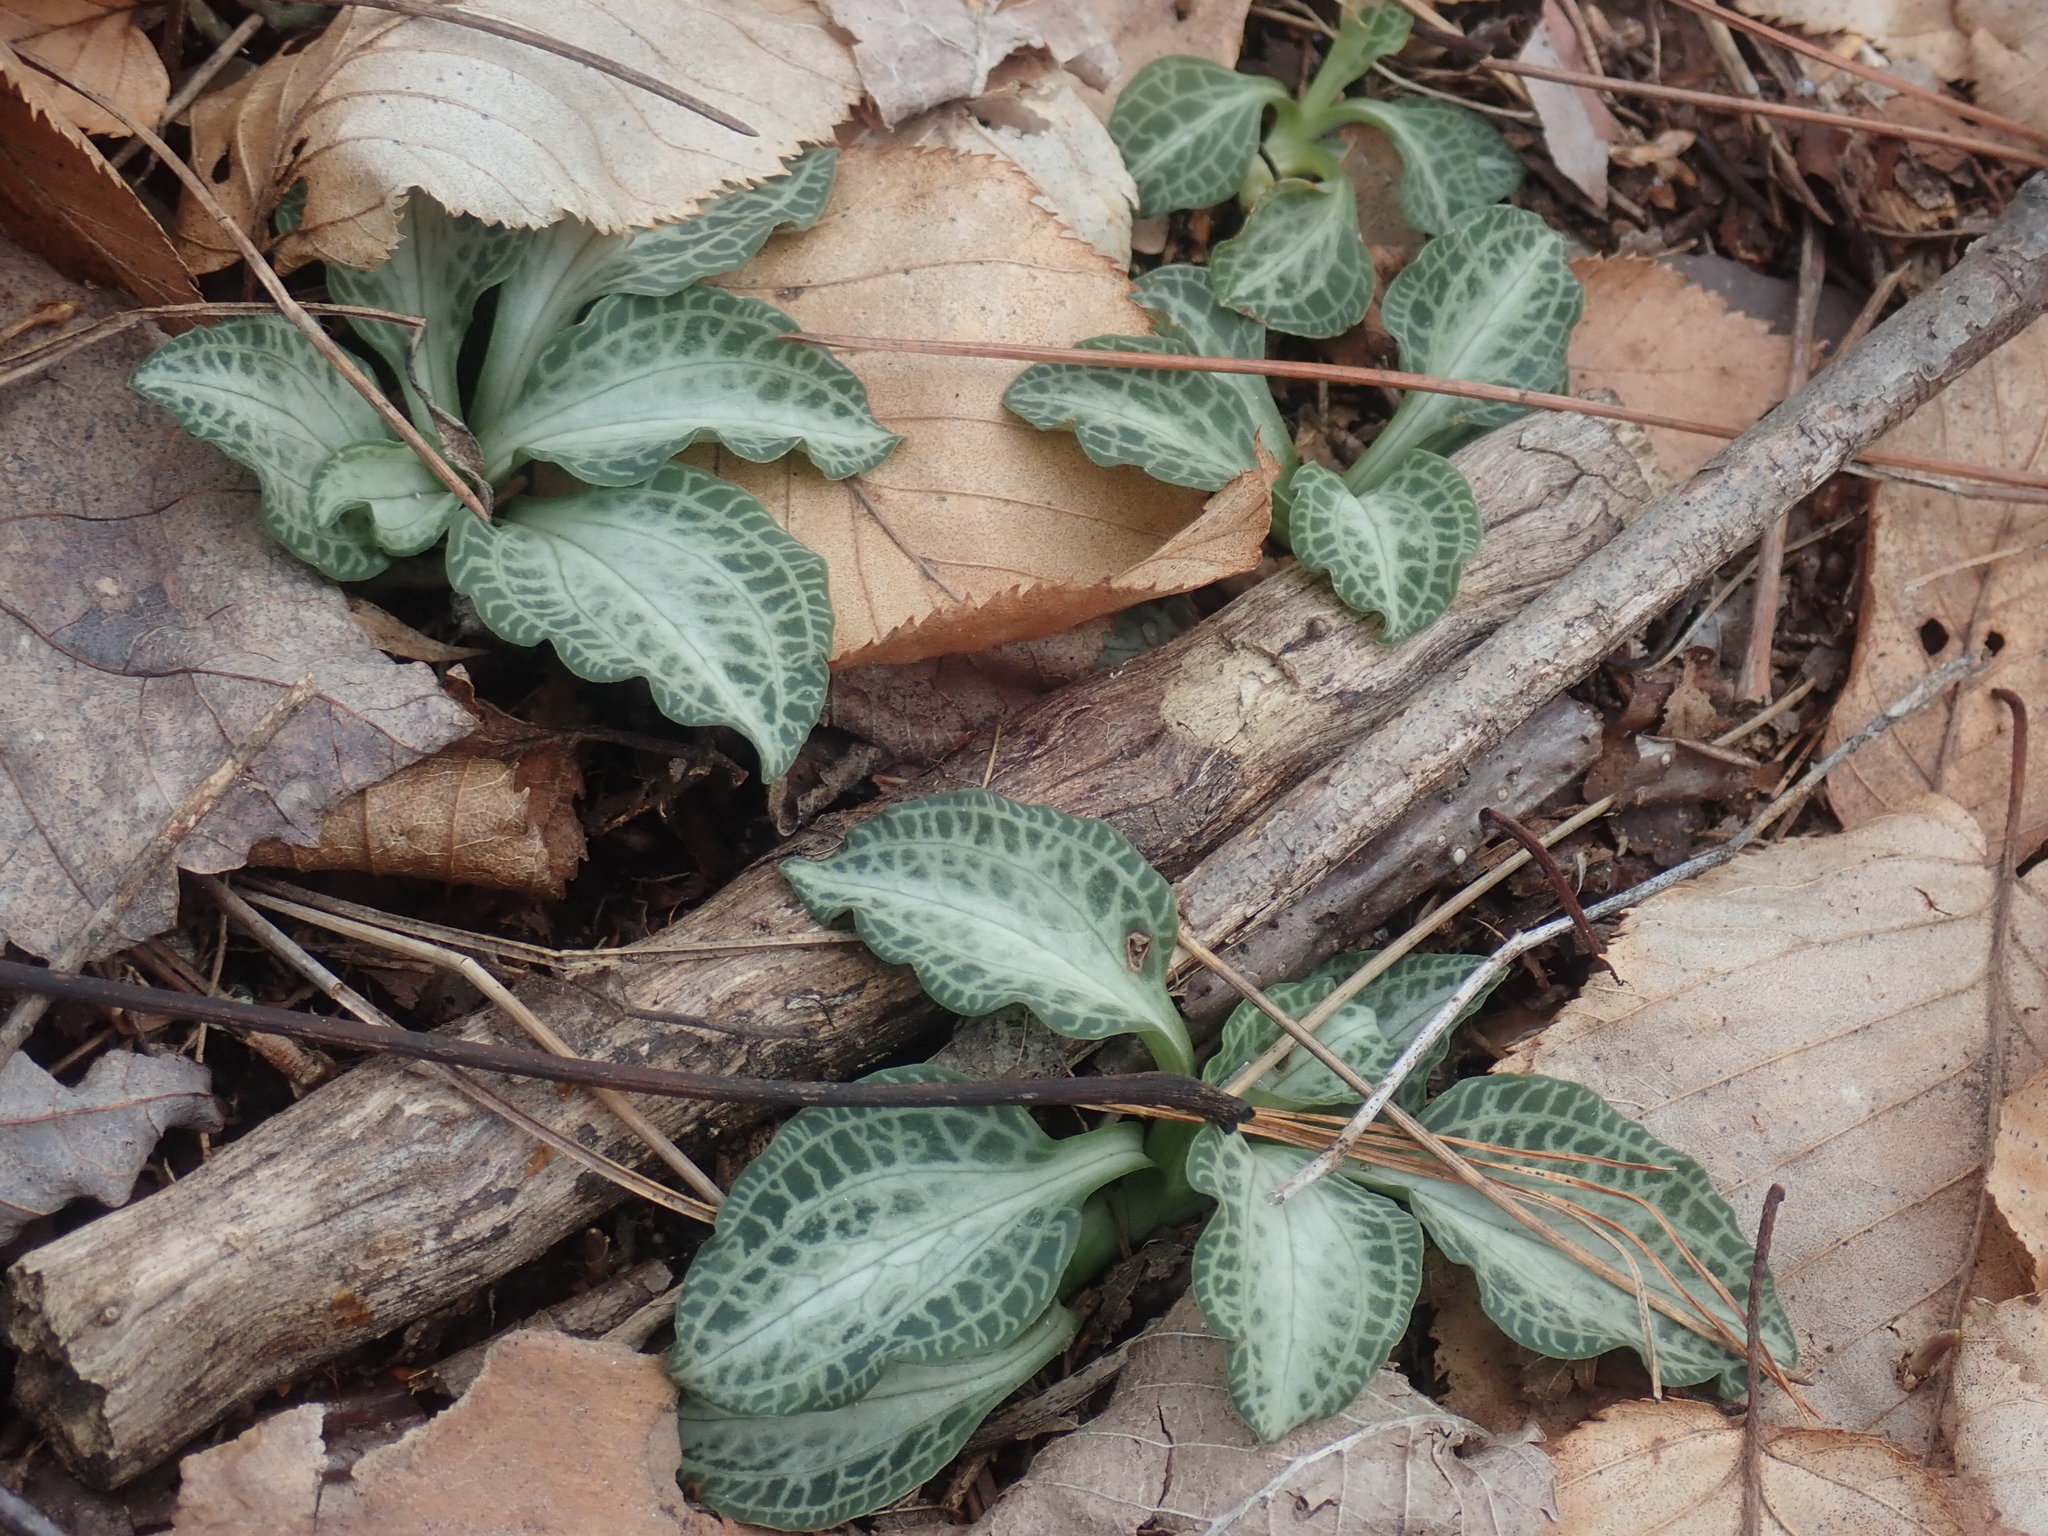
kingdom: Plantae
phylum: Tracheophyta
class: Liliopsida
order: Asparagales
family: Orchidaceae
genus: Goodyera
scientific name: Goodyera pubescens
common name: Downy rattlesnake-plantain
